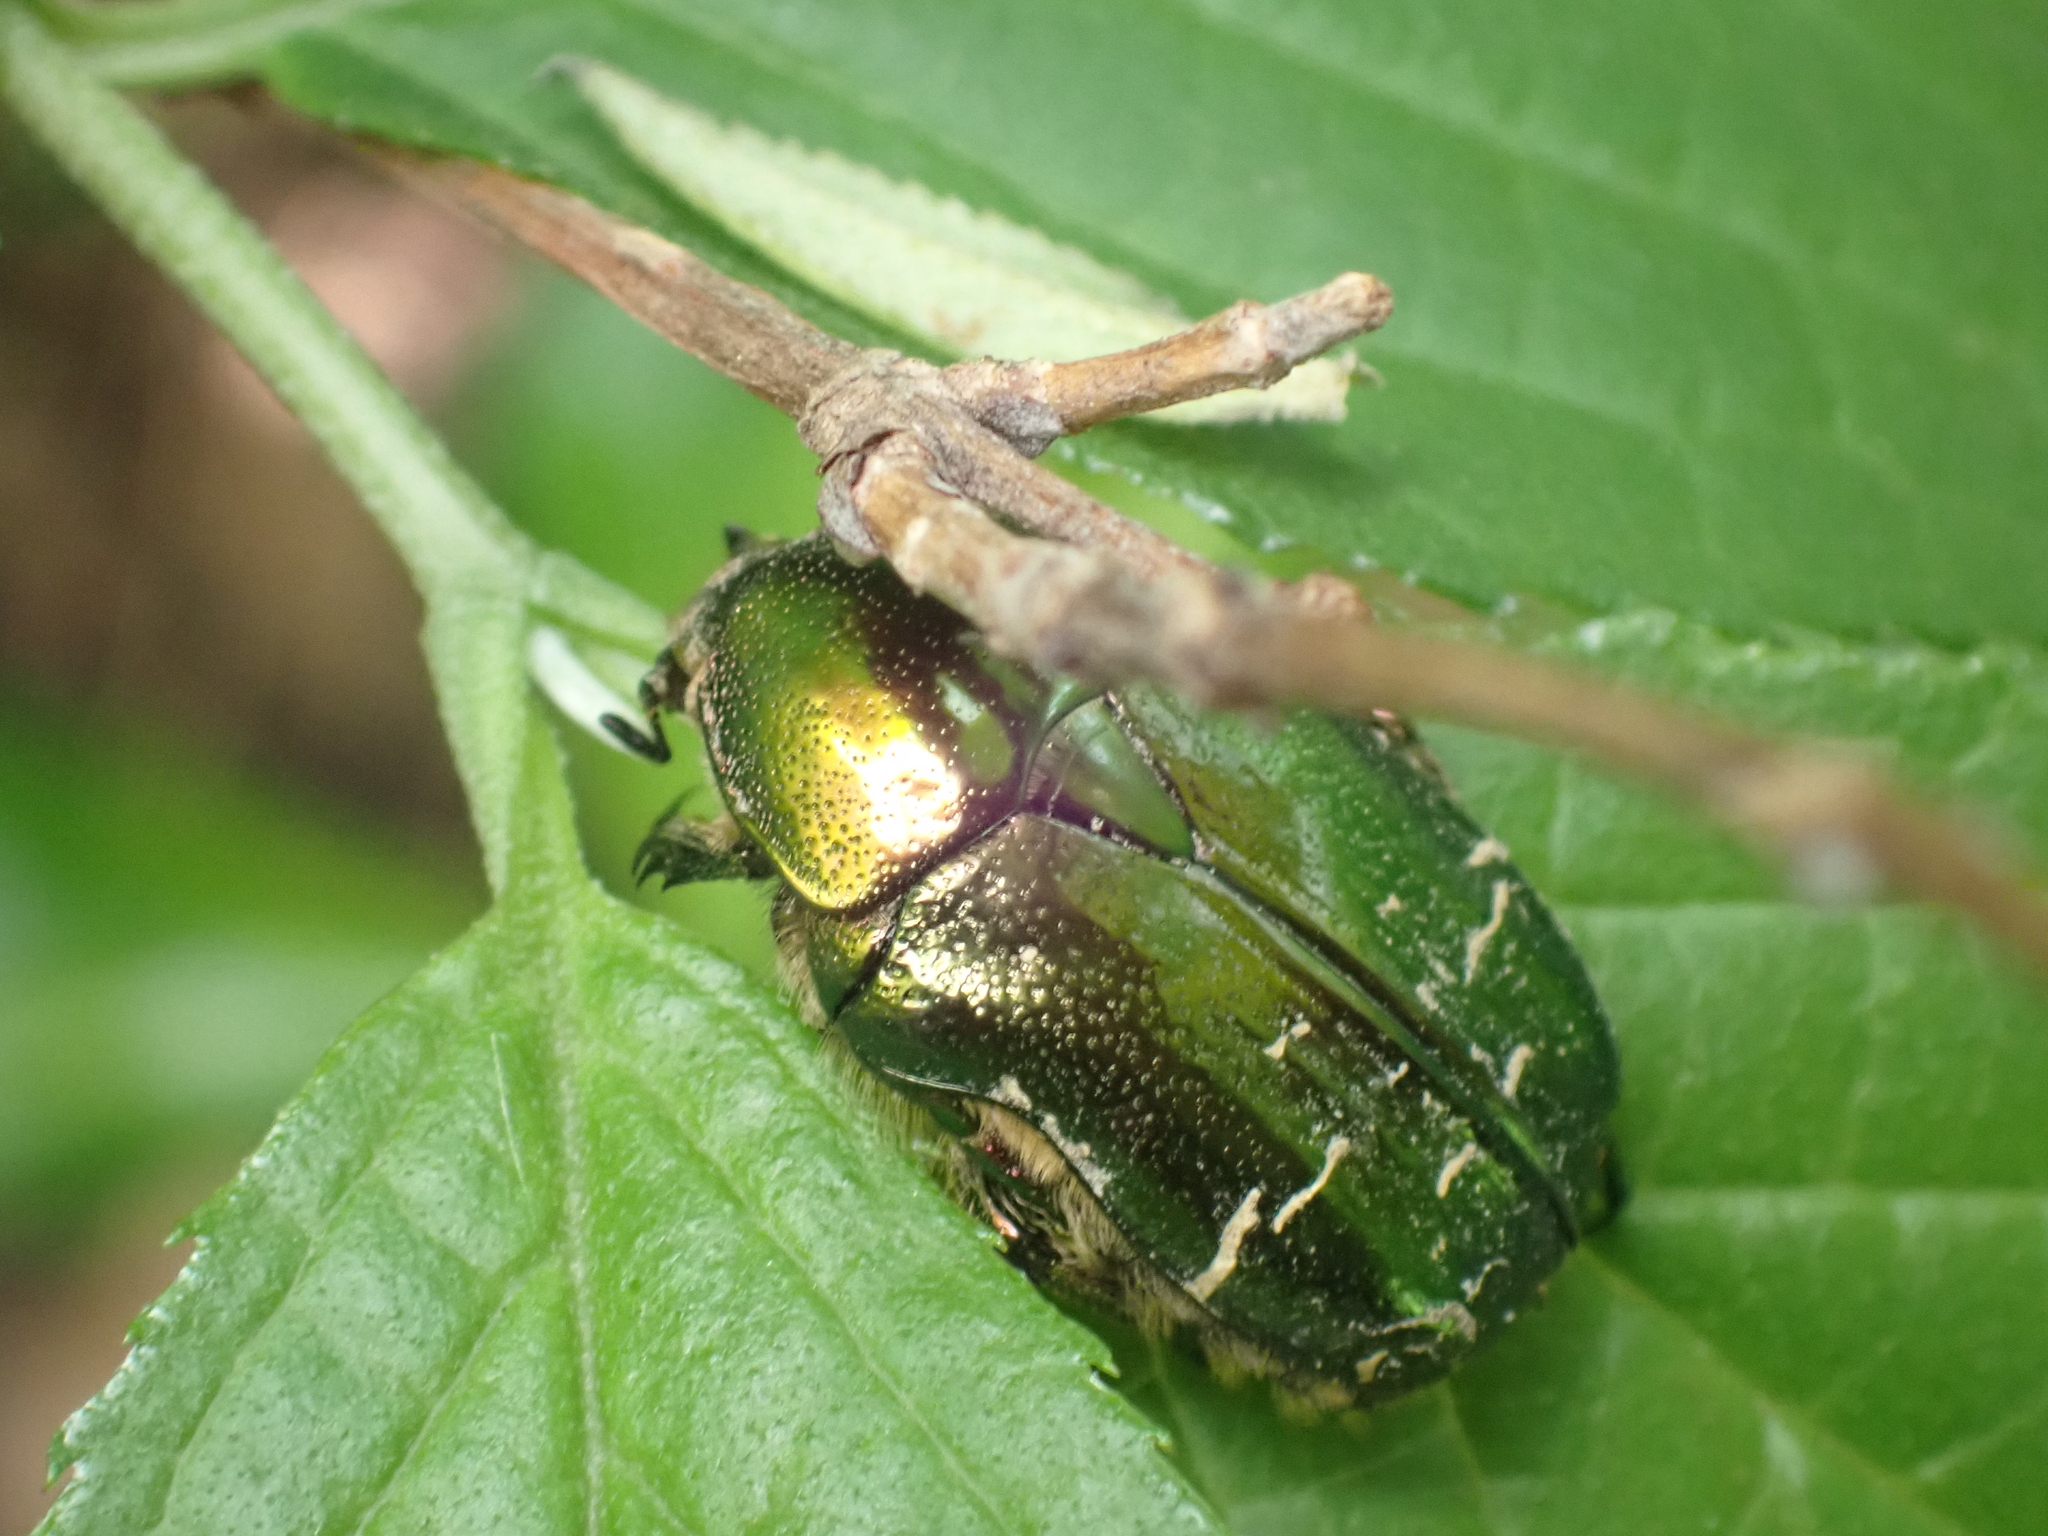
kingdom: Animalia
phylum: Arthropoda
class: Insecta
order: Coleoptera
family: Scarabaeidae
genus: Cetonia
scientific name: Cetonia aurata
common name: Rose chafer
